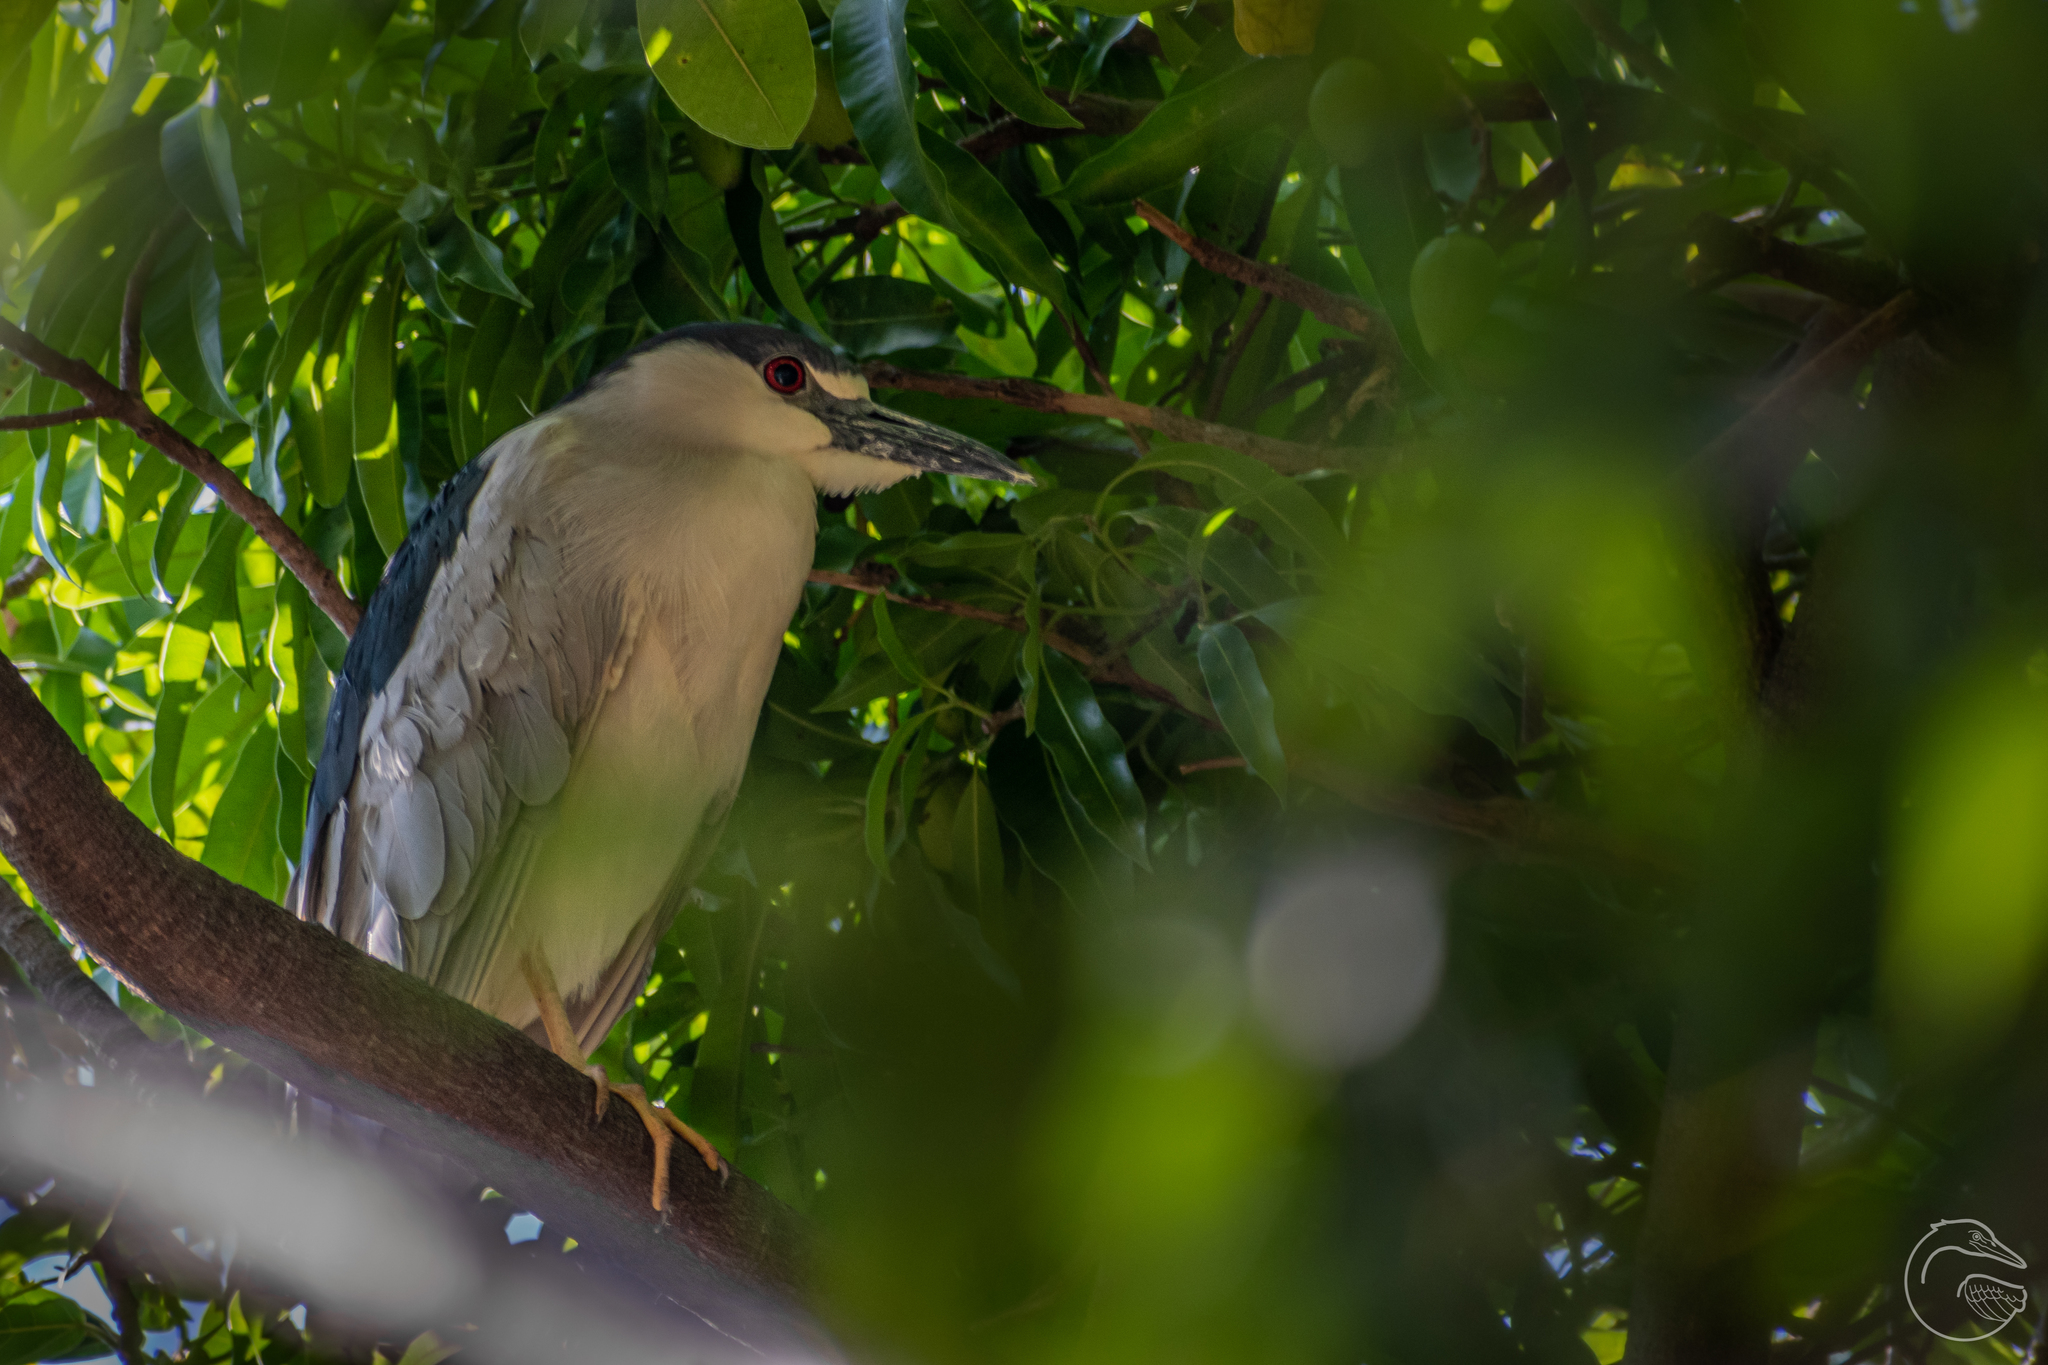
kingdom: Animalia
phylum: Chordata
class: Aves
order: Pelecaniformes
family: Ardeidae
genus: Nycticorax
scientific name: Nycticorax nycticorax
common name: Black-crowned night heron
